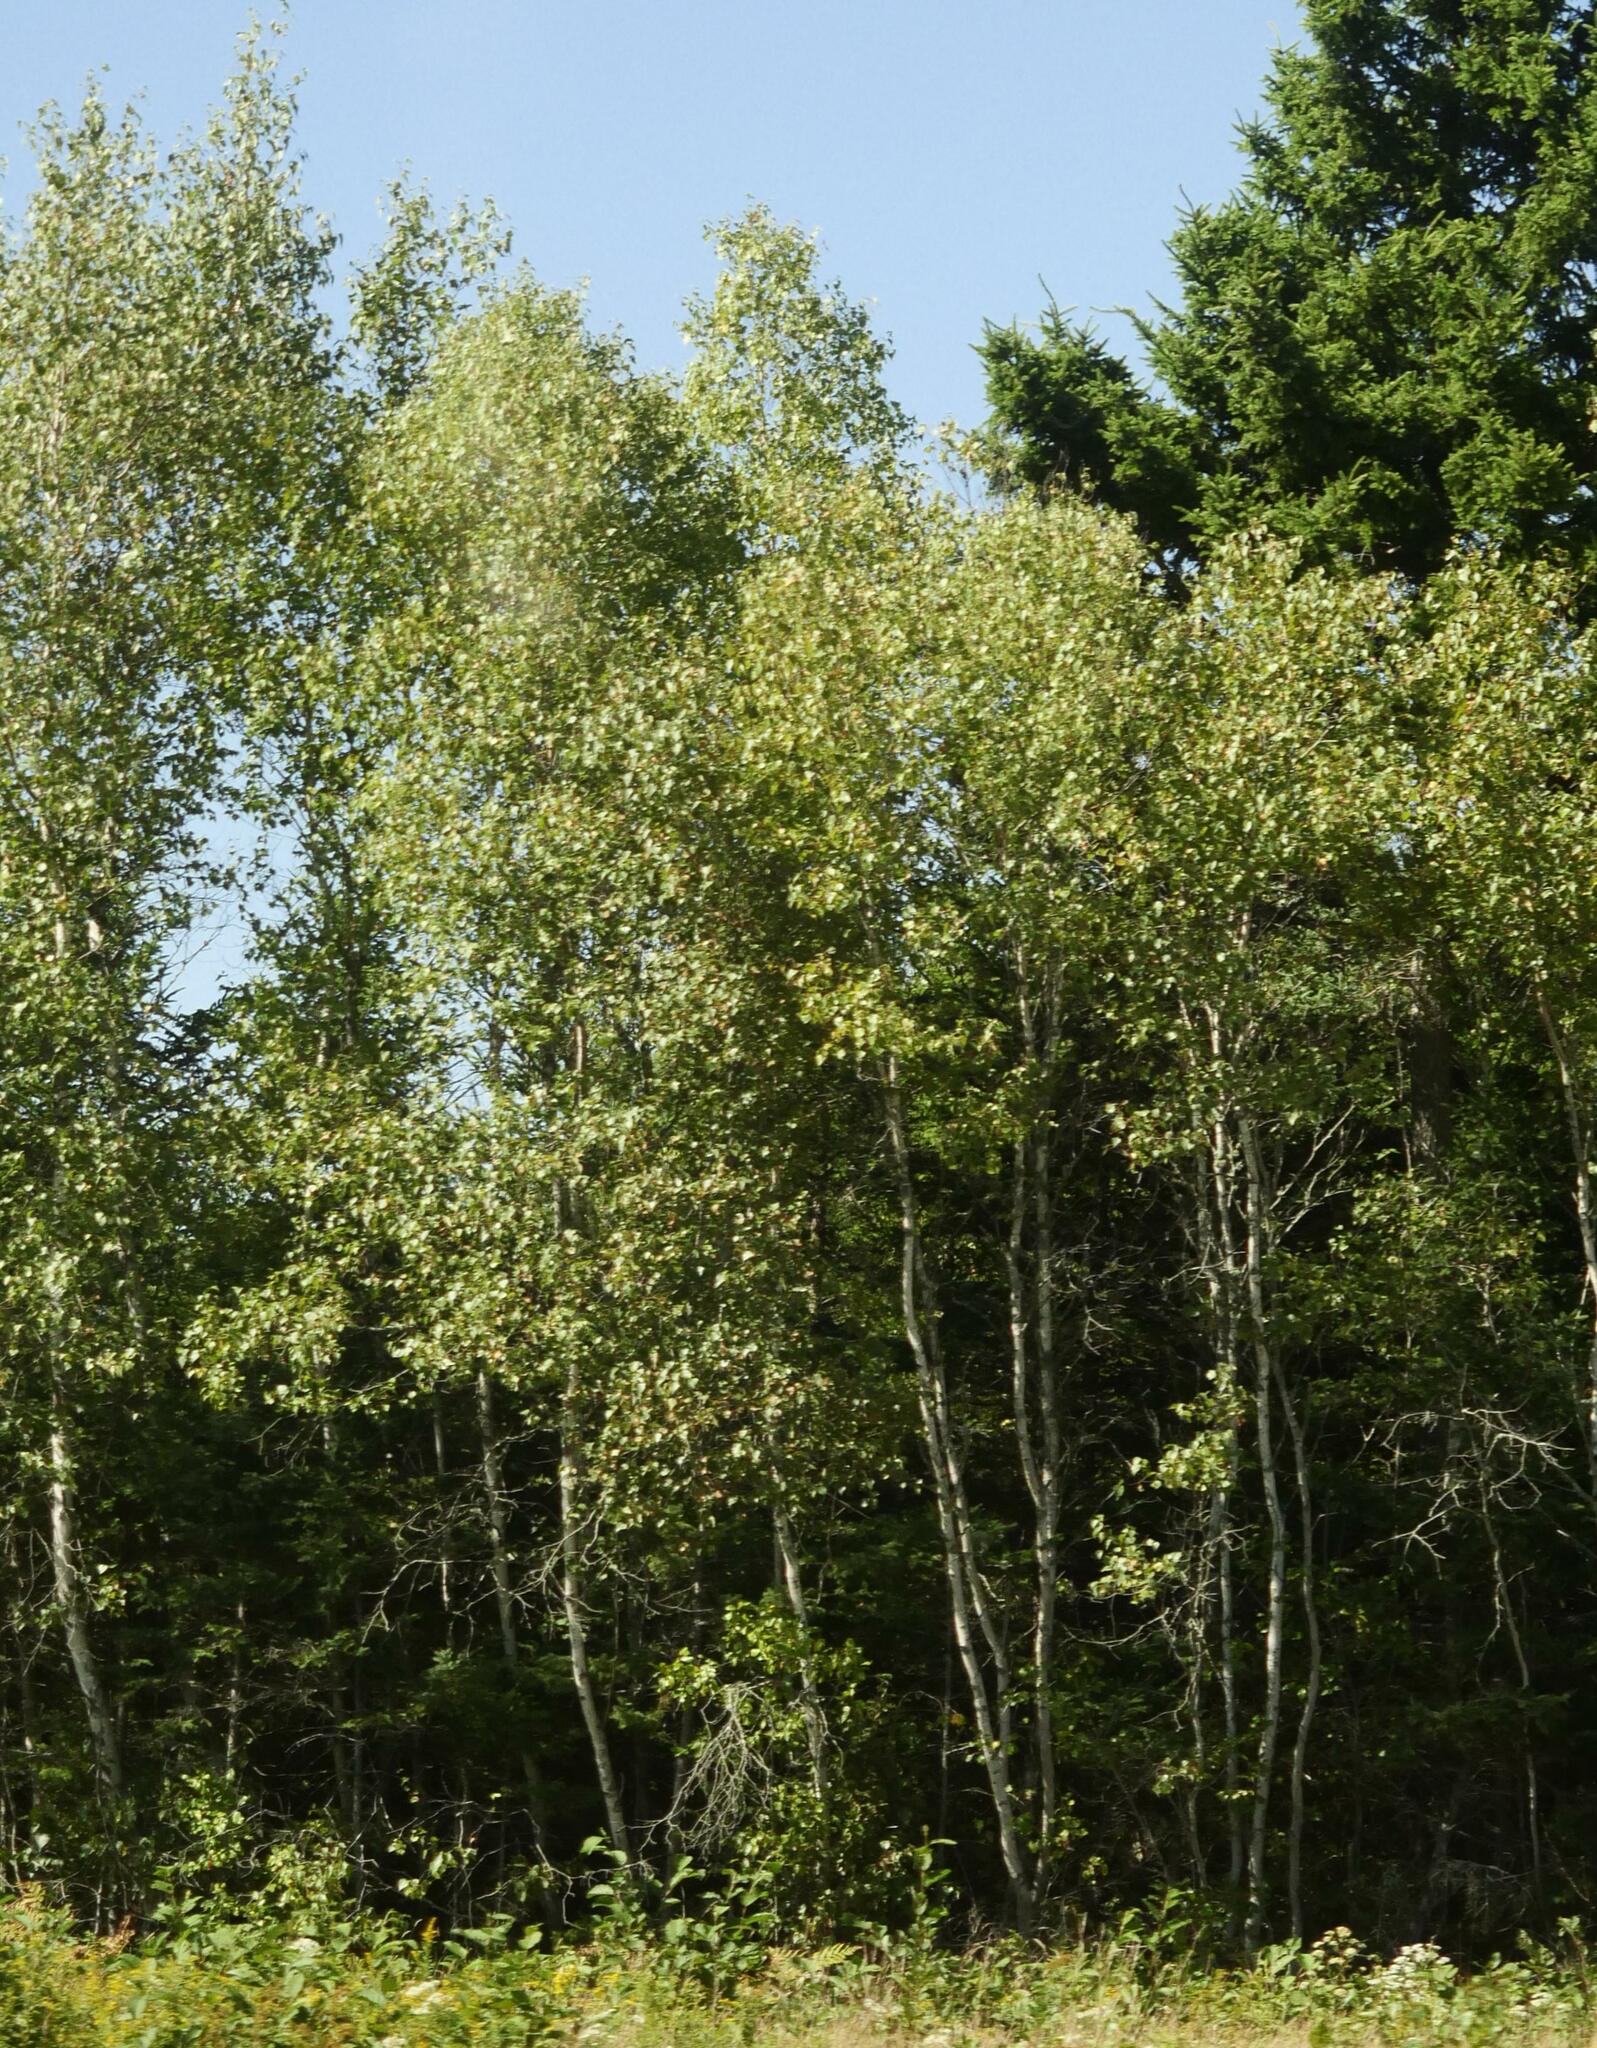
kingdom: Plantae
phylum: Tracheophyta
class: Magnoliopsida
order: Malpighiales
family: Salicaceae
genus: Populus
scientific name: Populus tremuloides
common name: Quaking aspen
